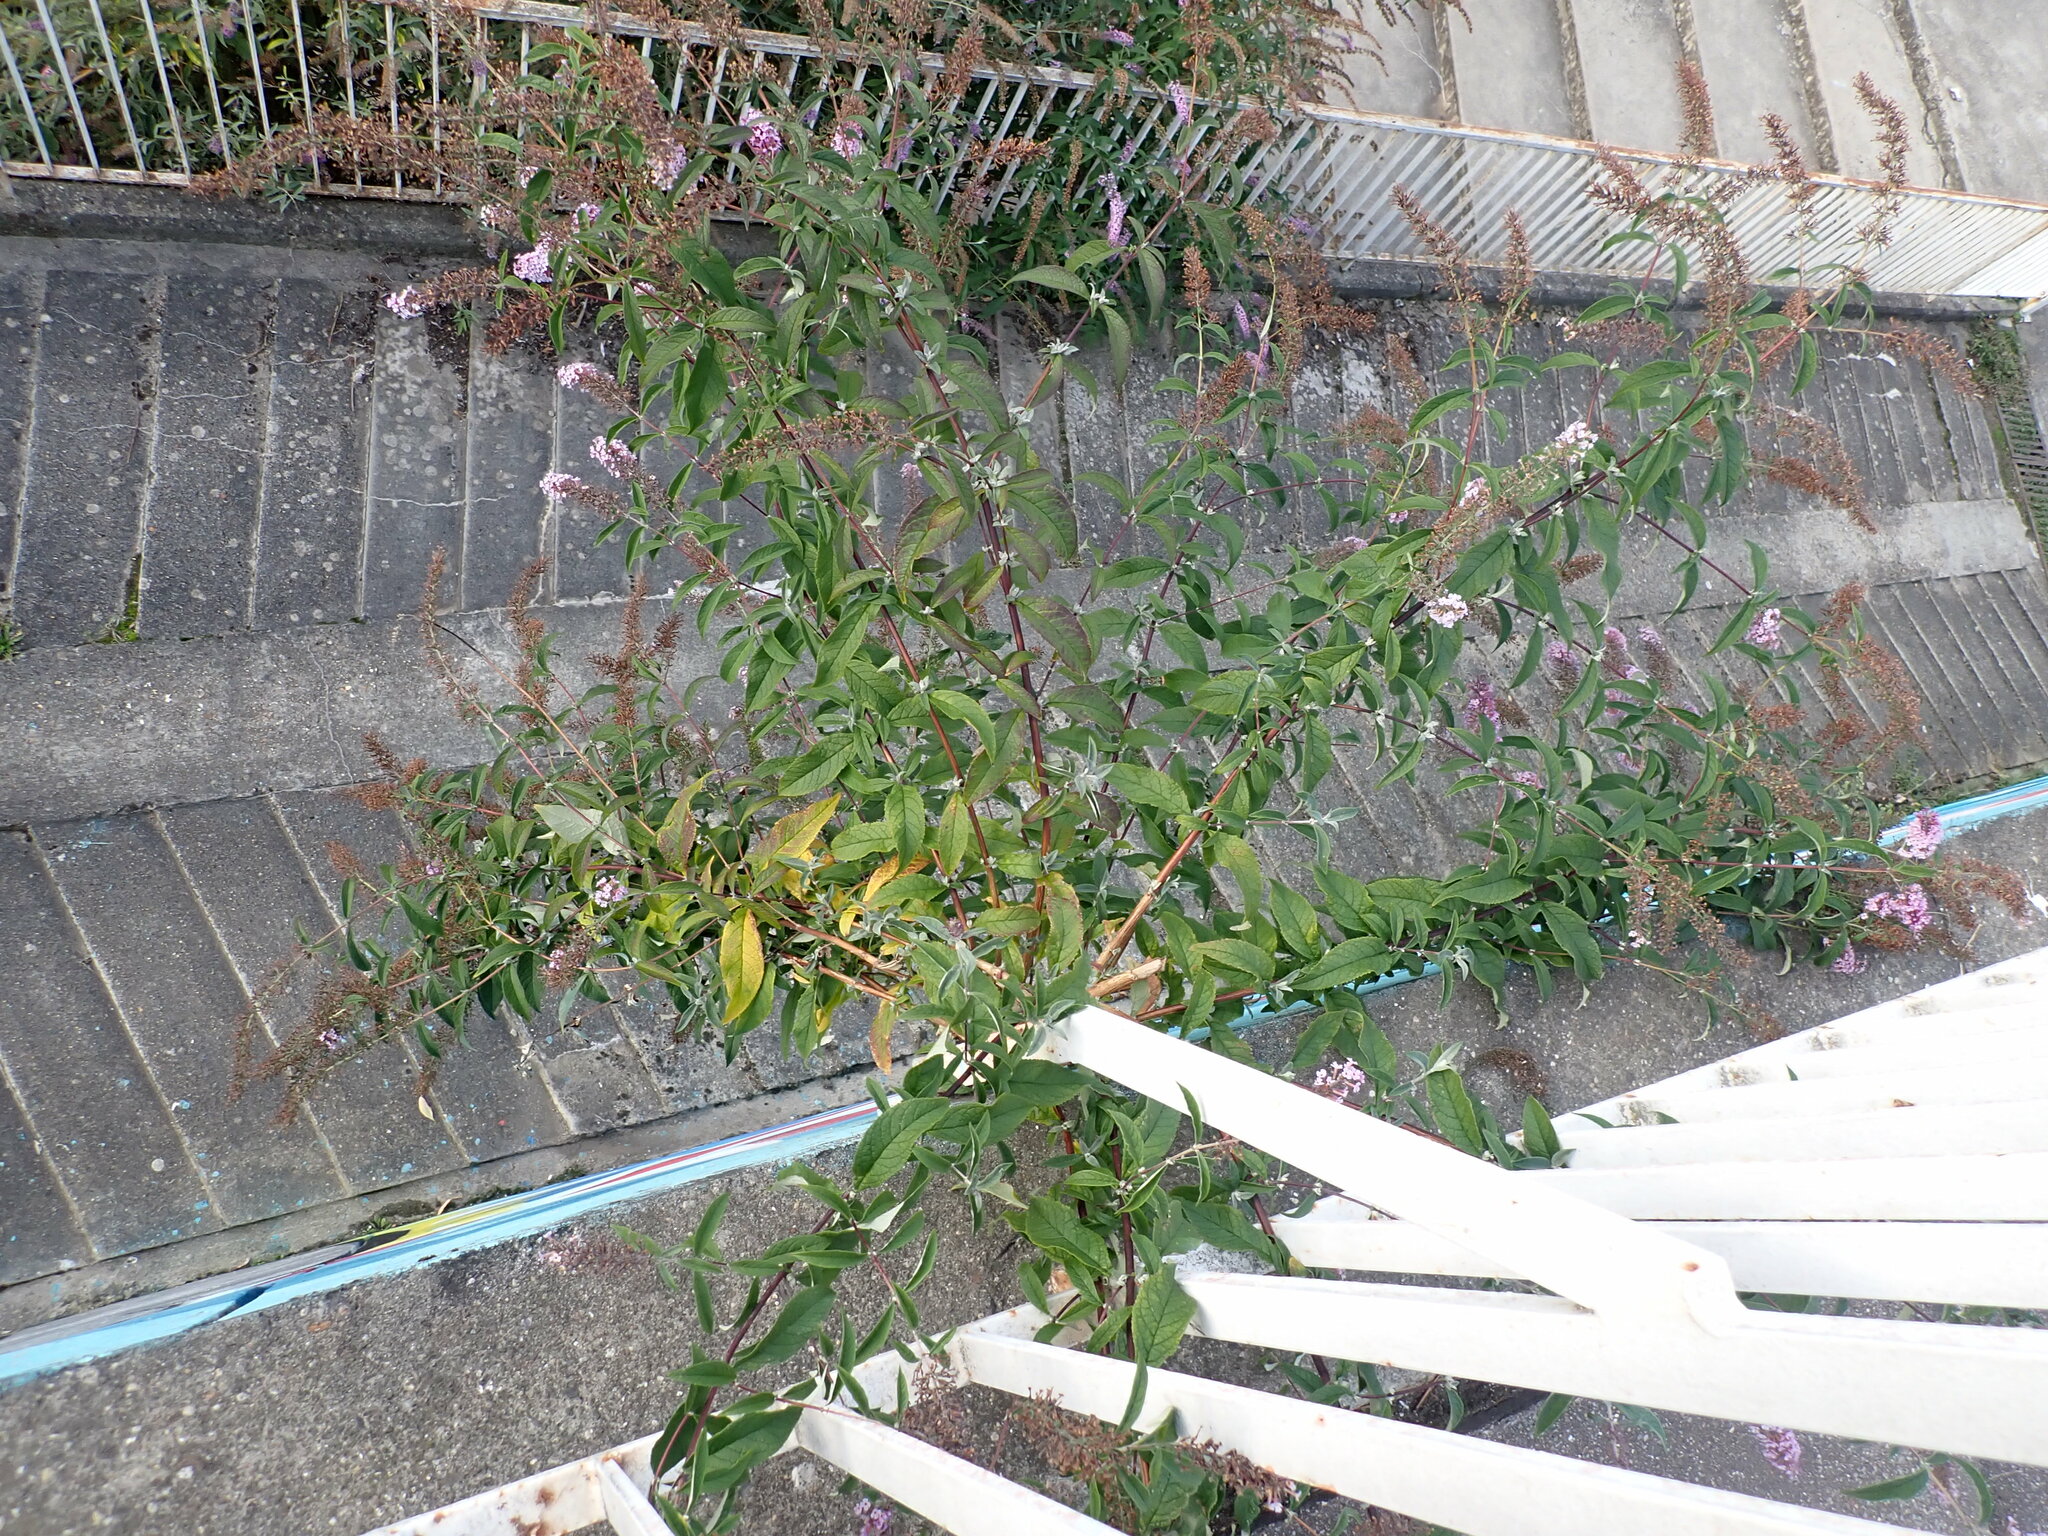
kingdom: Plantae
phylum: Tracheophyta
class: Magnoliopsida
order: Lamiales
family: Scrophulariaceae
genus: Buddleja
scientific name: Buddleja davidii
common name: Butterfly-bush
